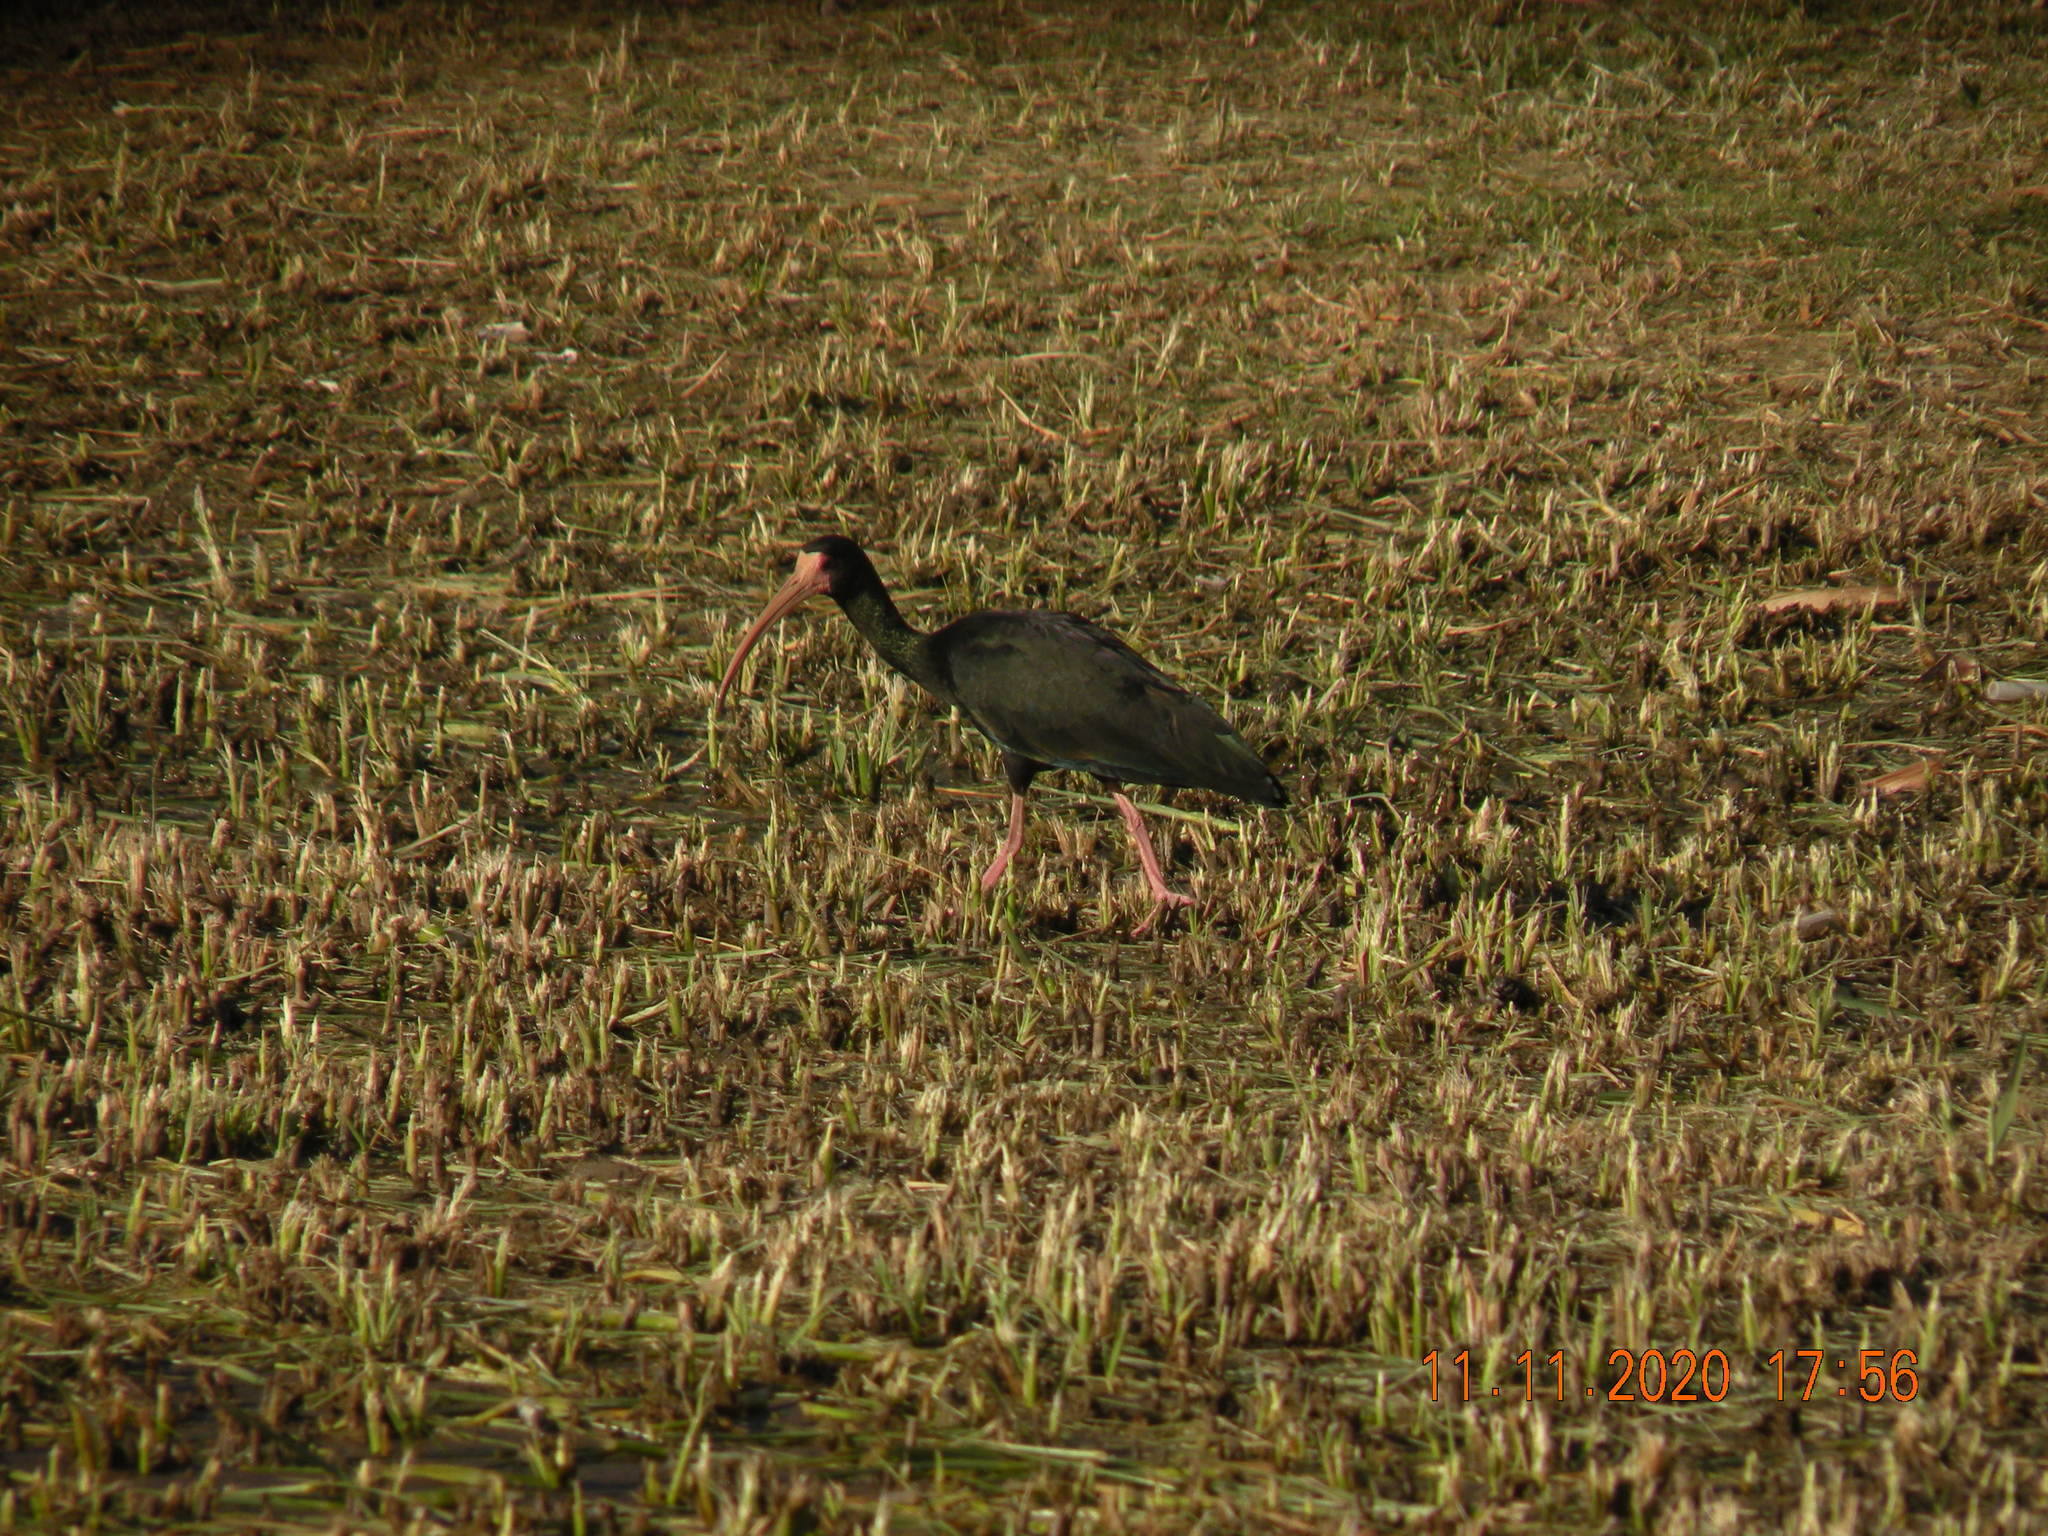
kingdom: Animalia
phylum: Chordata
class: Aves
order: Pelecaniformes
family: Threskiornithidae
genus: Phimosus
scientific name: Phimosus infuscatus
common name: Bare-faced ibis
